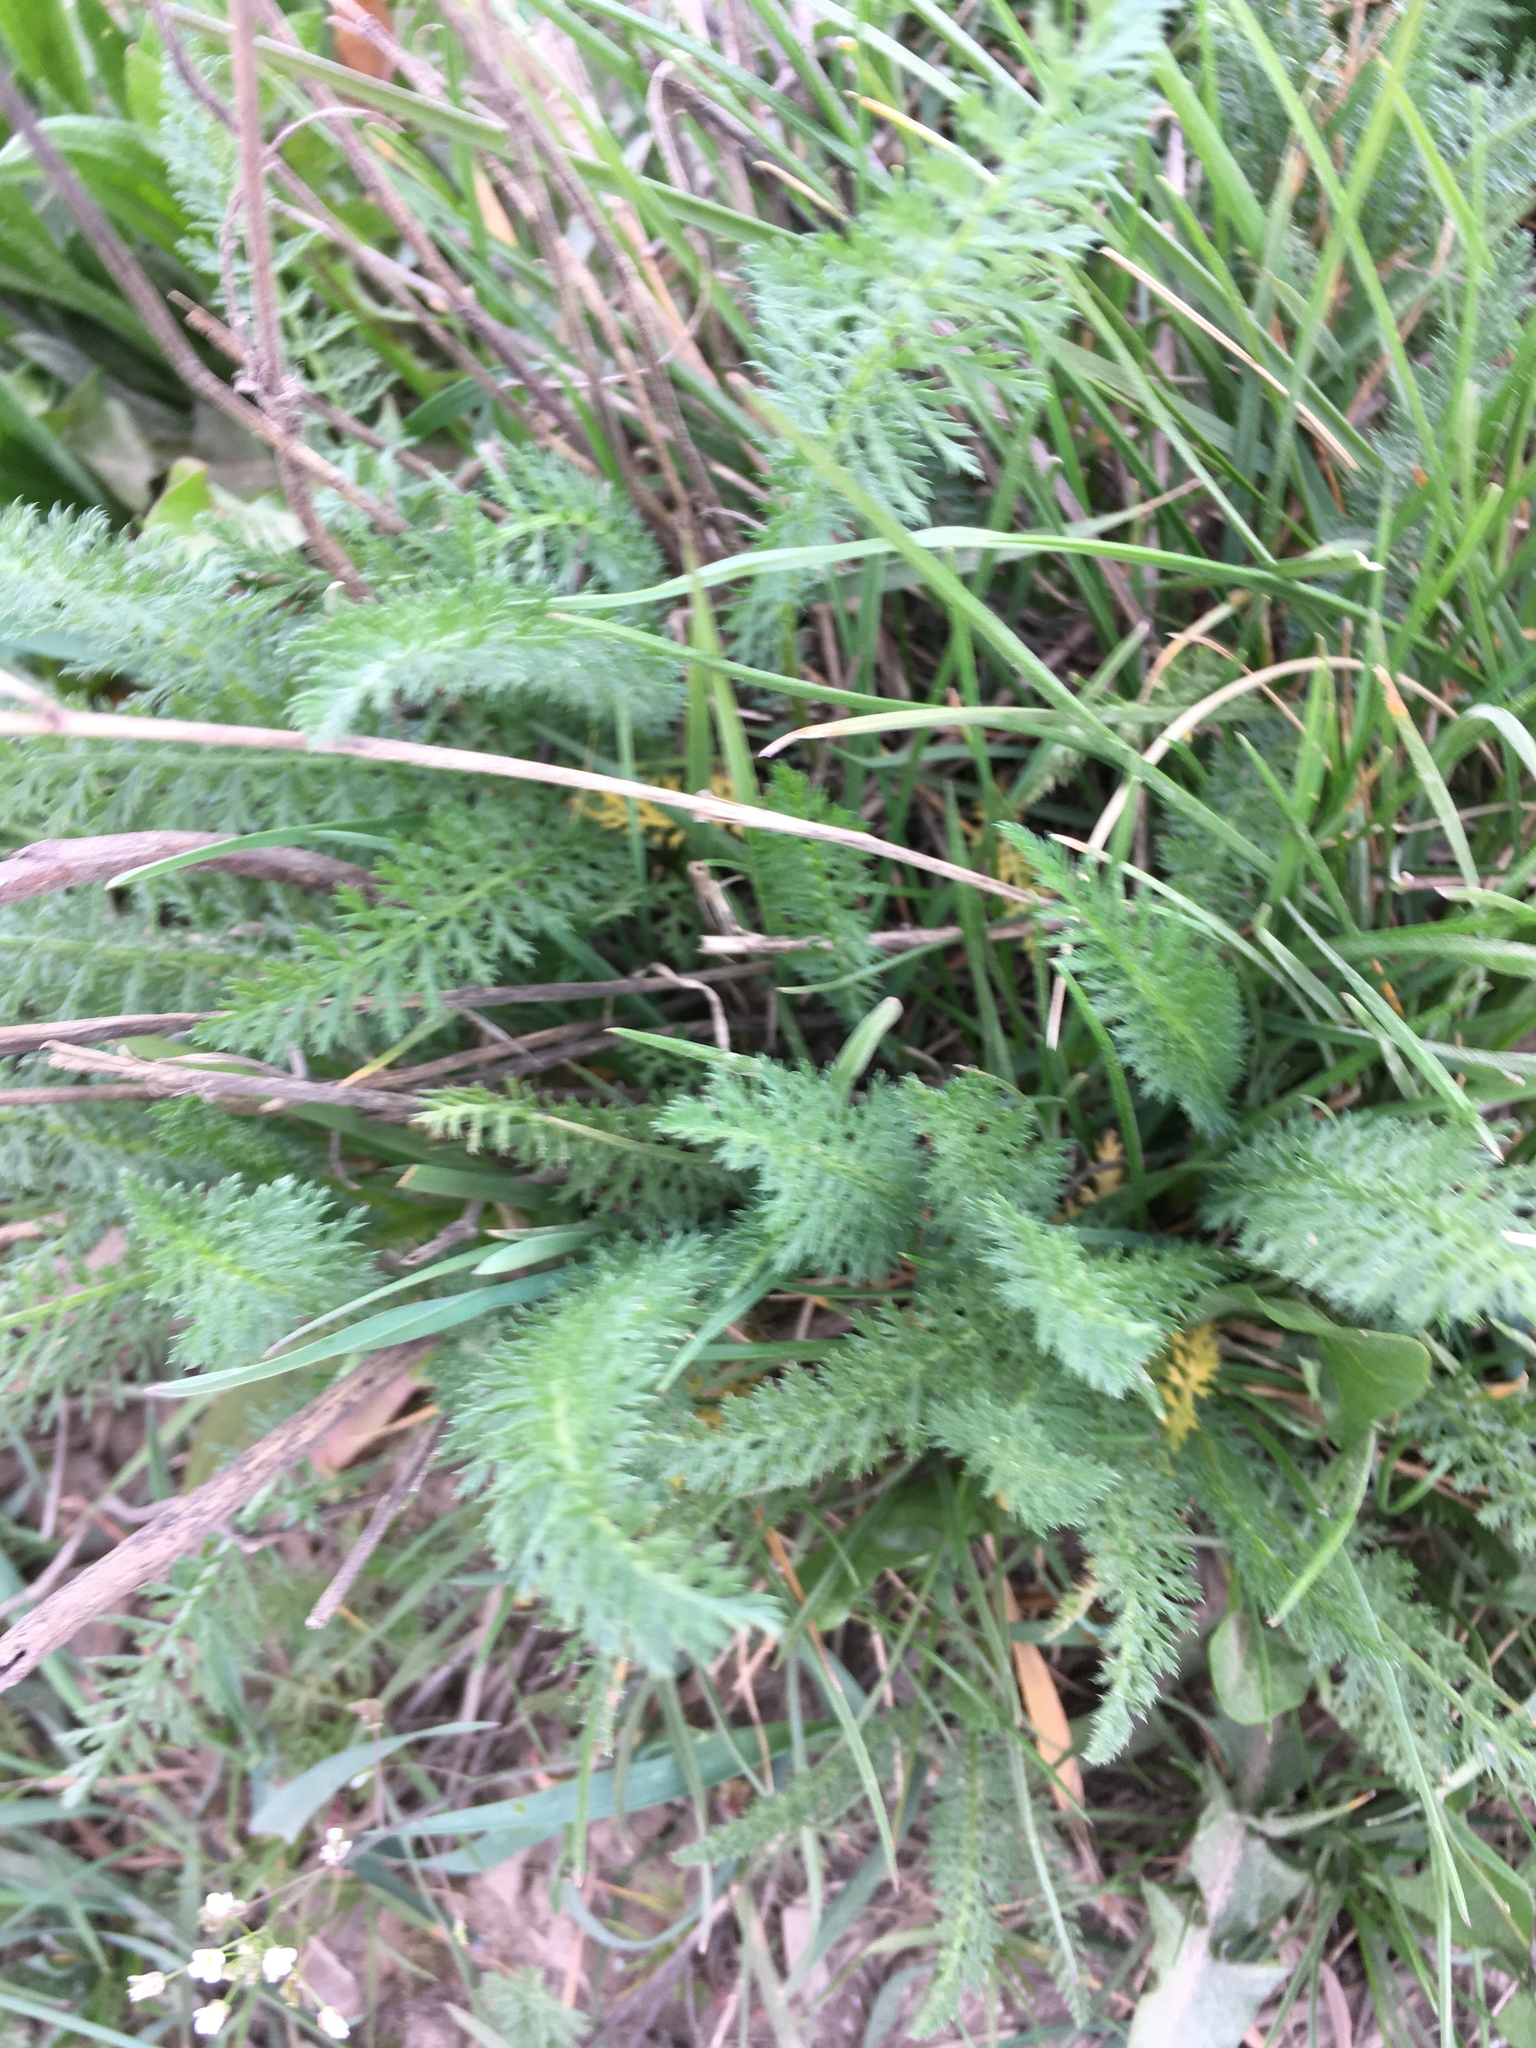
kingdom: Plantae
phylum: Tracheophyta
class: Magnoliopsida
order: Asterales
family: Asteraceae
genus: Achillea
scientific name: Achillea millefolium
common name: Yarrow
